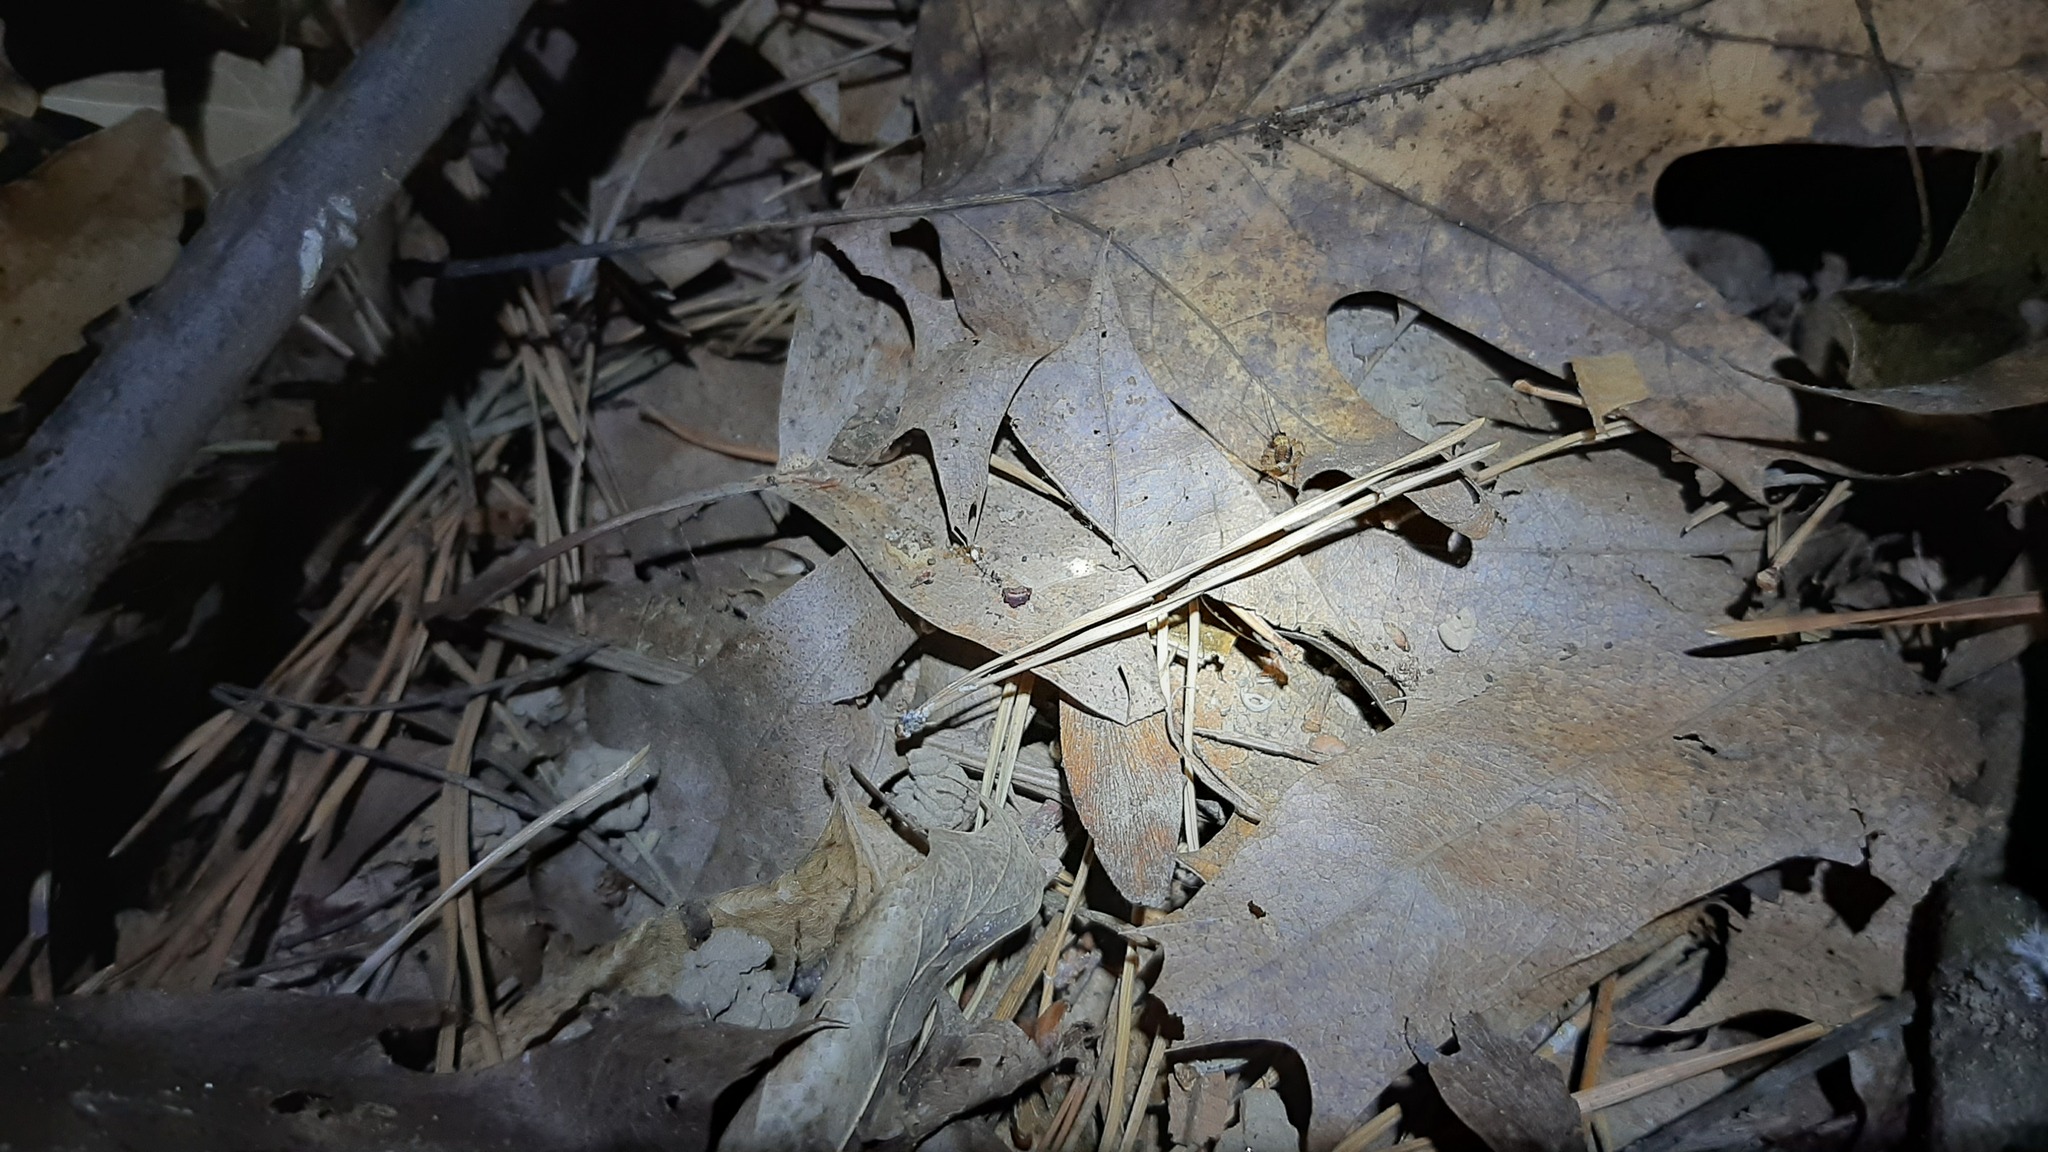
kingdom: Animalia
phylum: Arthropoda
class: Insecta
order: Orthoptera
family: Trigonidiidae
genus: Nemobius
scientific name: Nemobius sylvestris
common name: Wood-cricket
